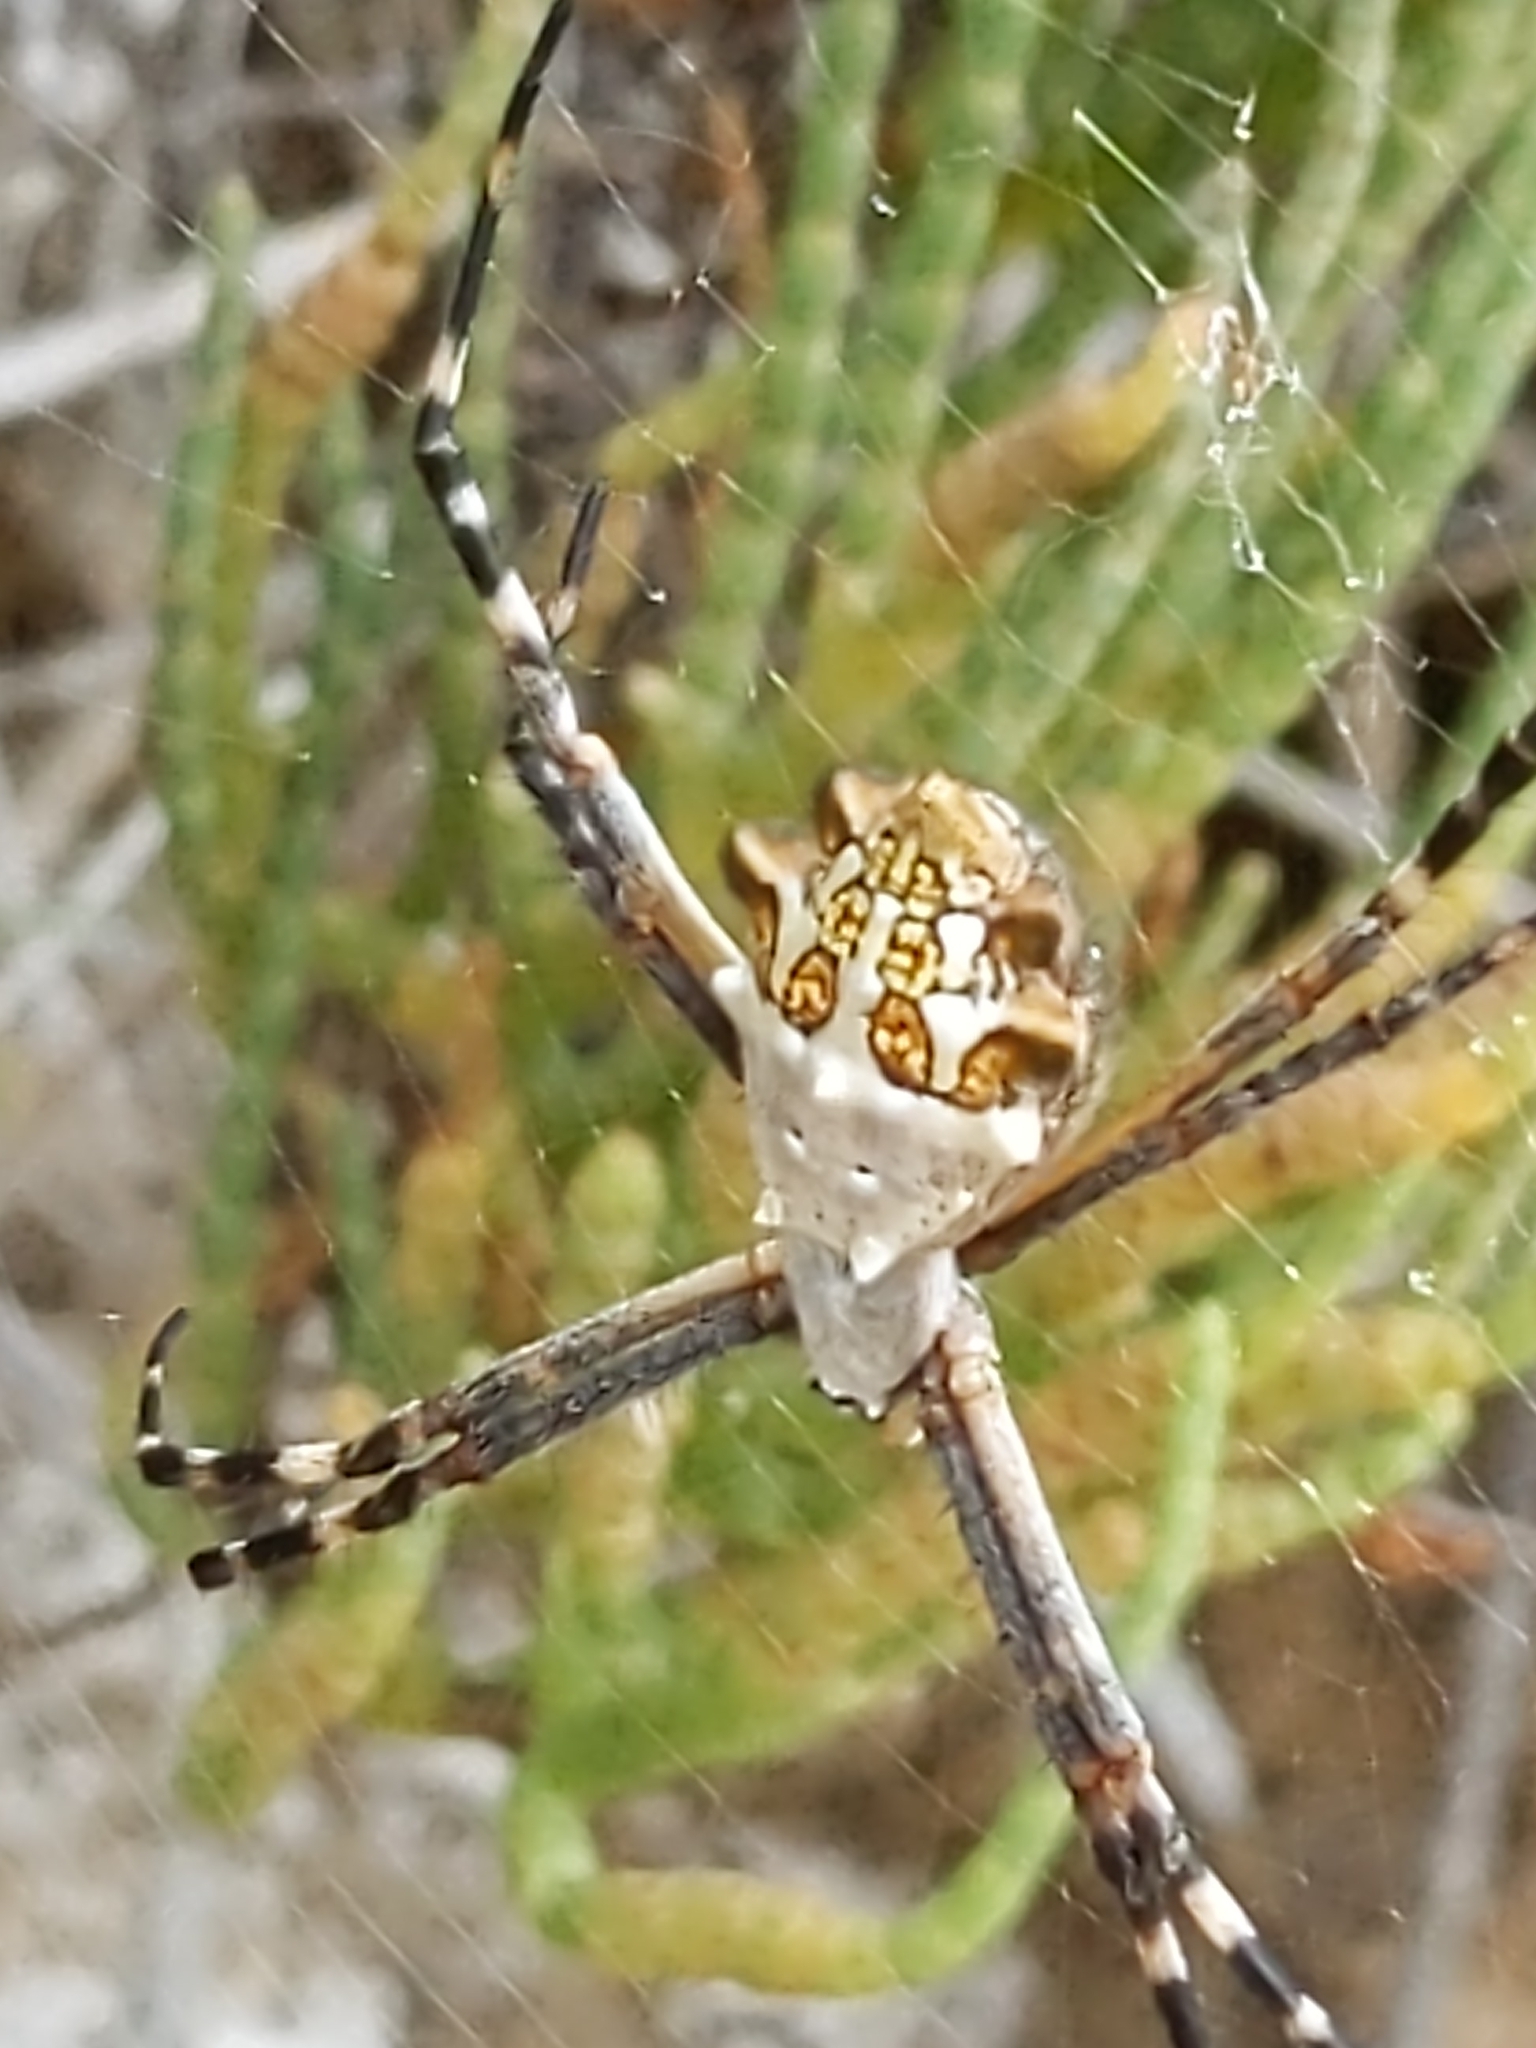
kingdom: Animalia
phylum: Arthropoda
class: Arachnida
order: Araneae
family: Araneidae
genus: Argiope
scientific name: Argiope argentata
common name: Orb weavers
